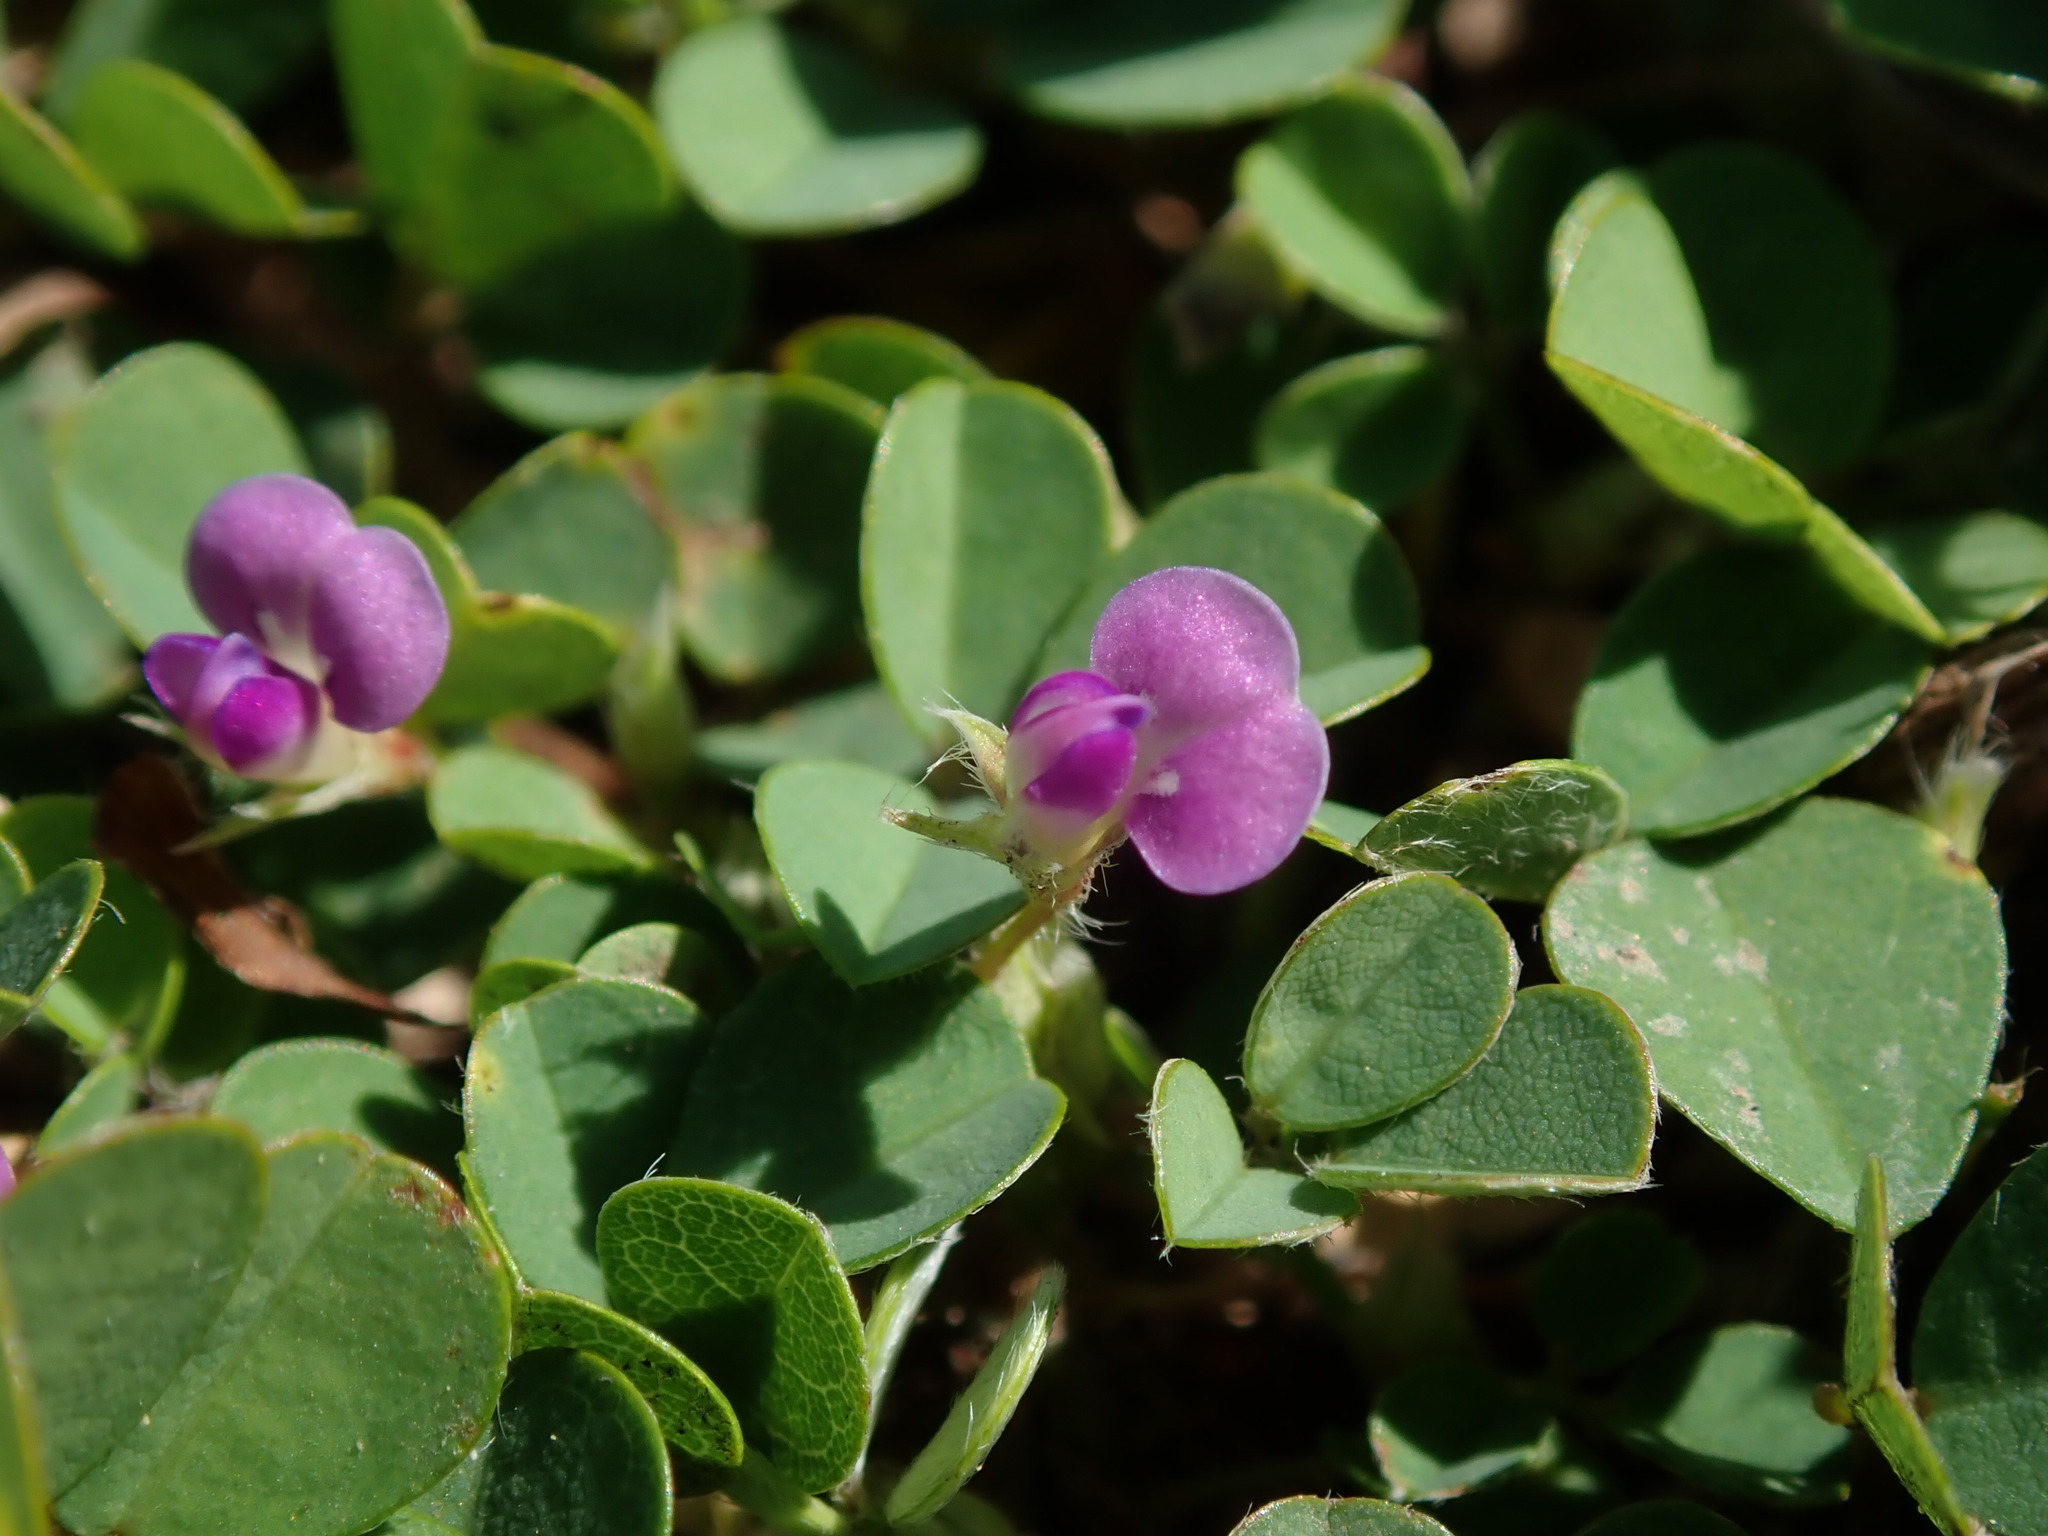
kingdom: Plantae
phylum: Tracheophyta
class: Magnoliopsida
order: Fabales
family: Fabaceae
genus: Grona
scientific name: Grona triflora
